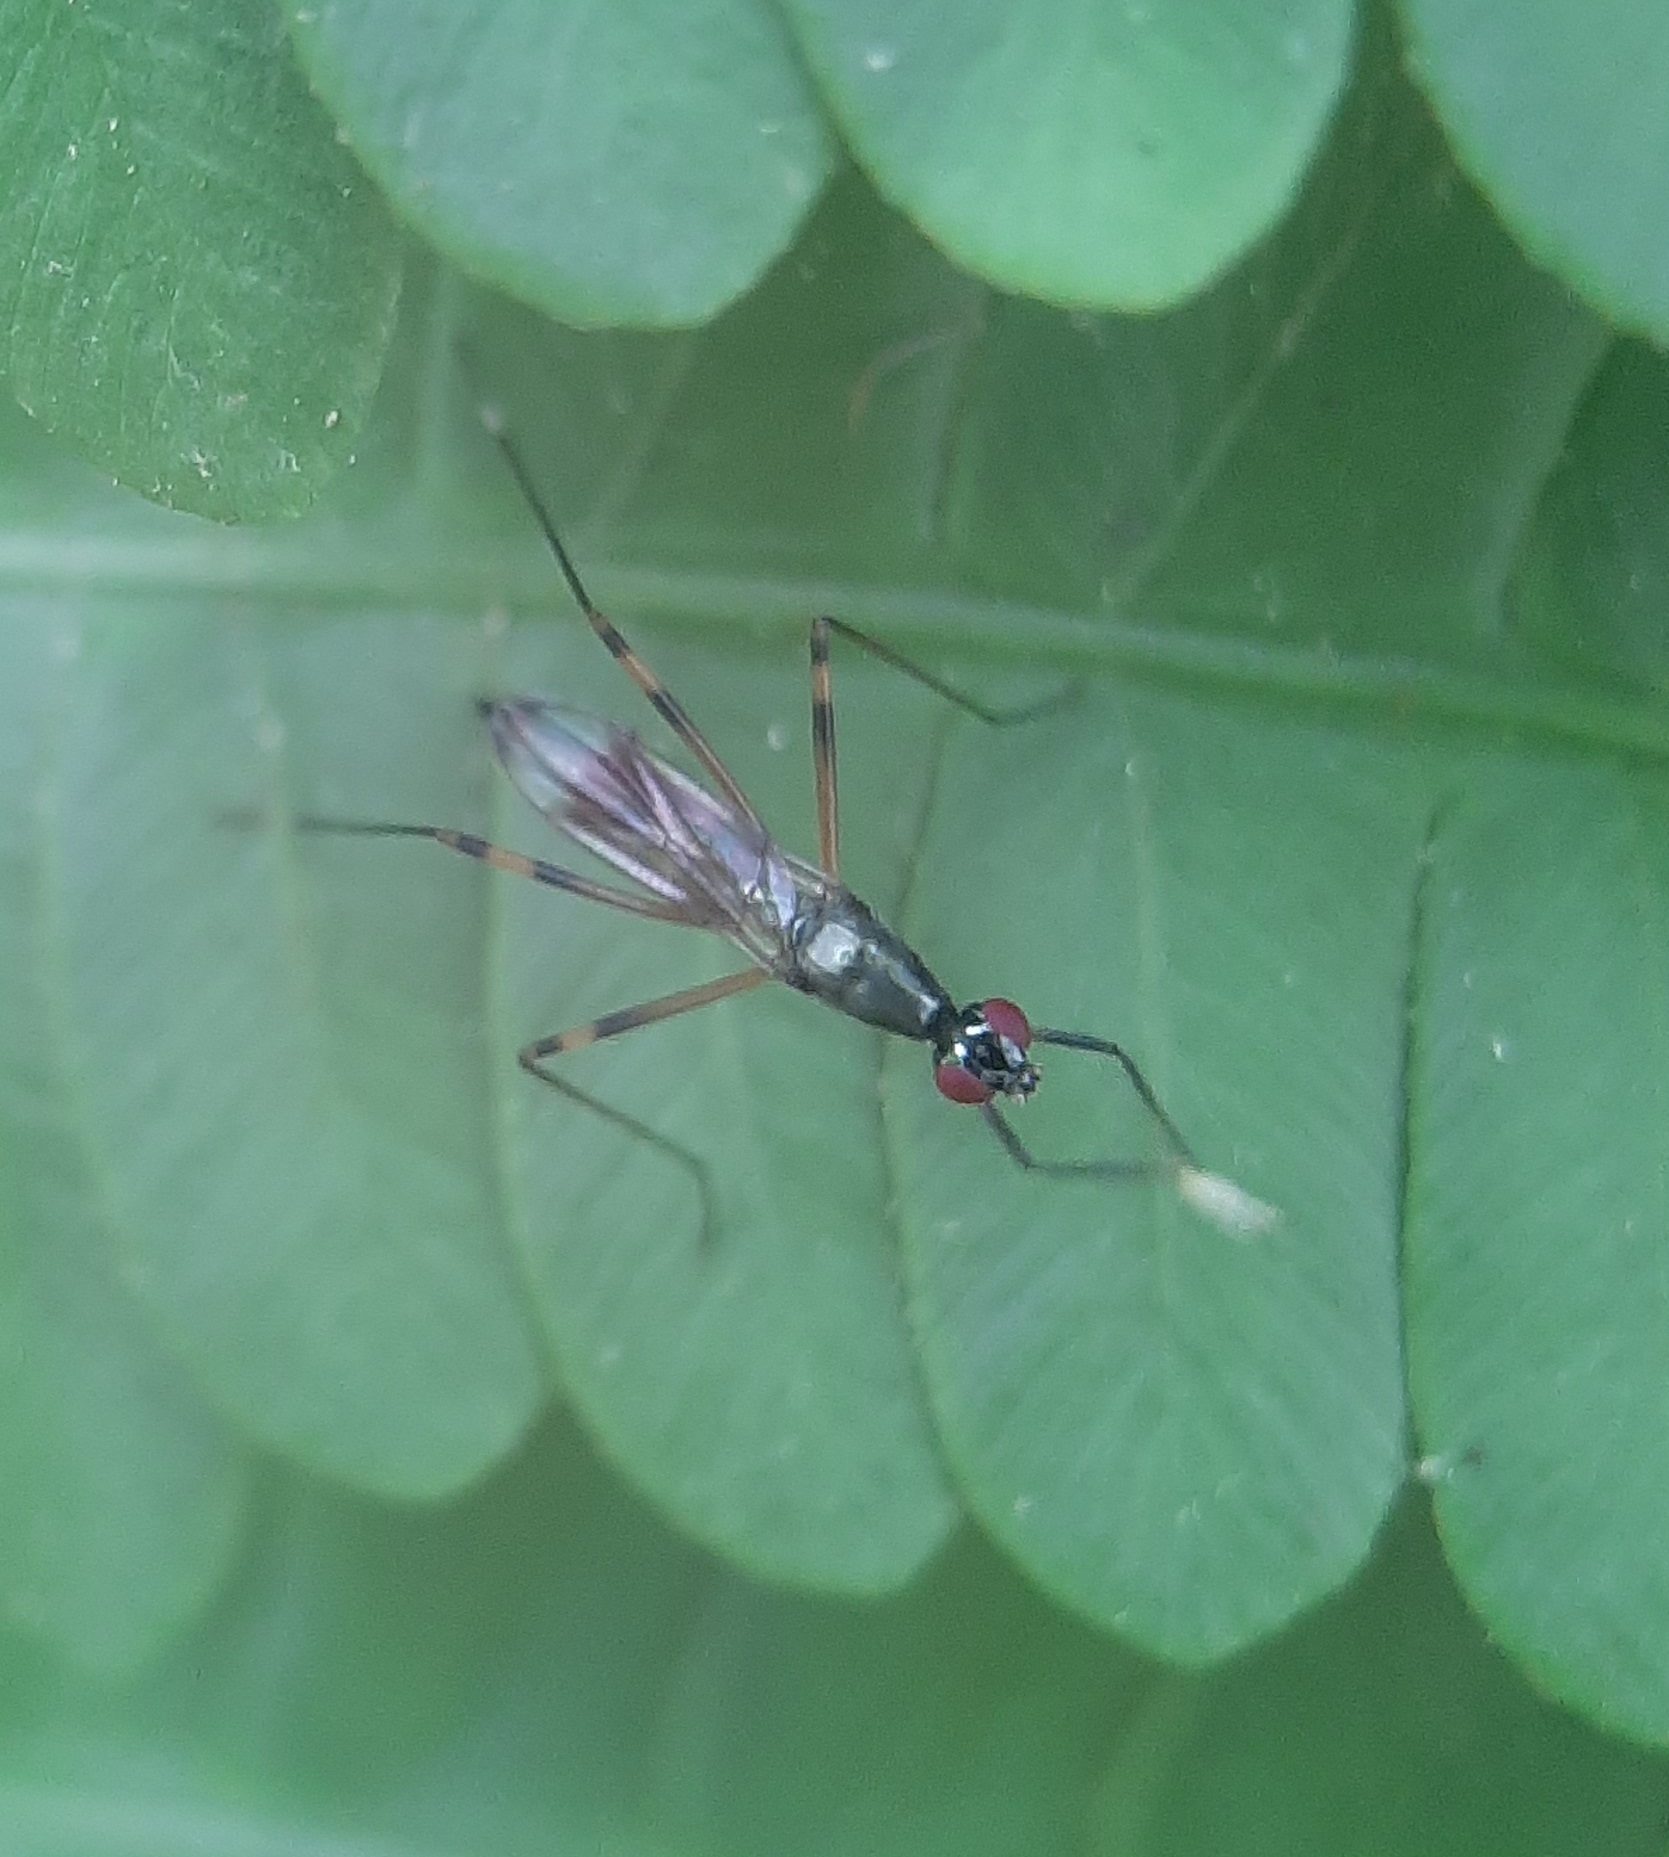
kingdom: Animalia
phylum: Arthropoda
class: Insecta
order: Diptera
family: Micropezidae
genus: Rainieria
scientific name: Rainieria antennaepes
